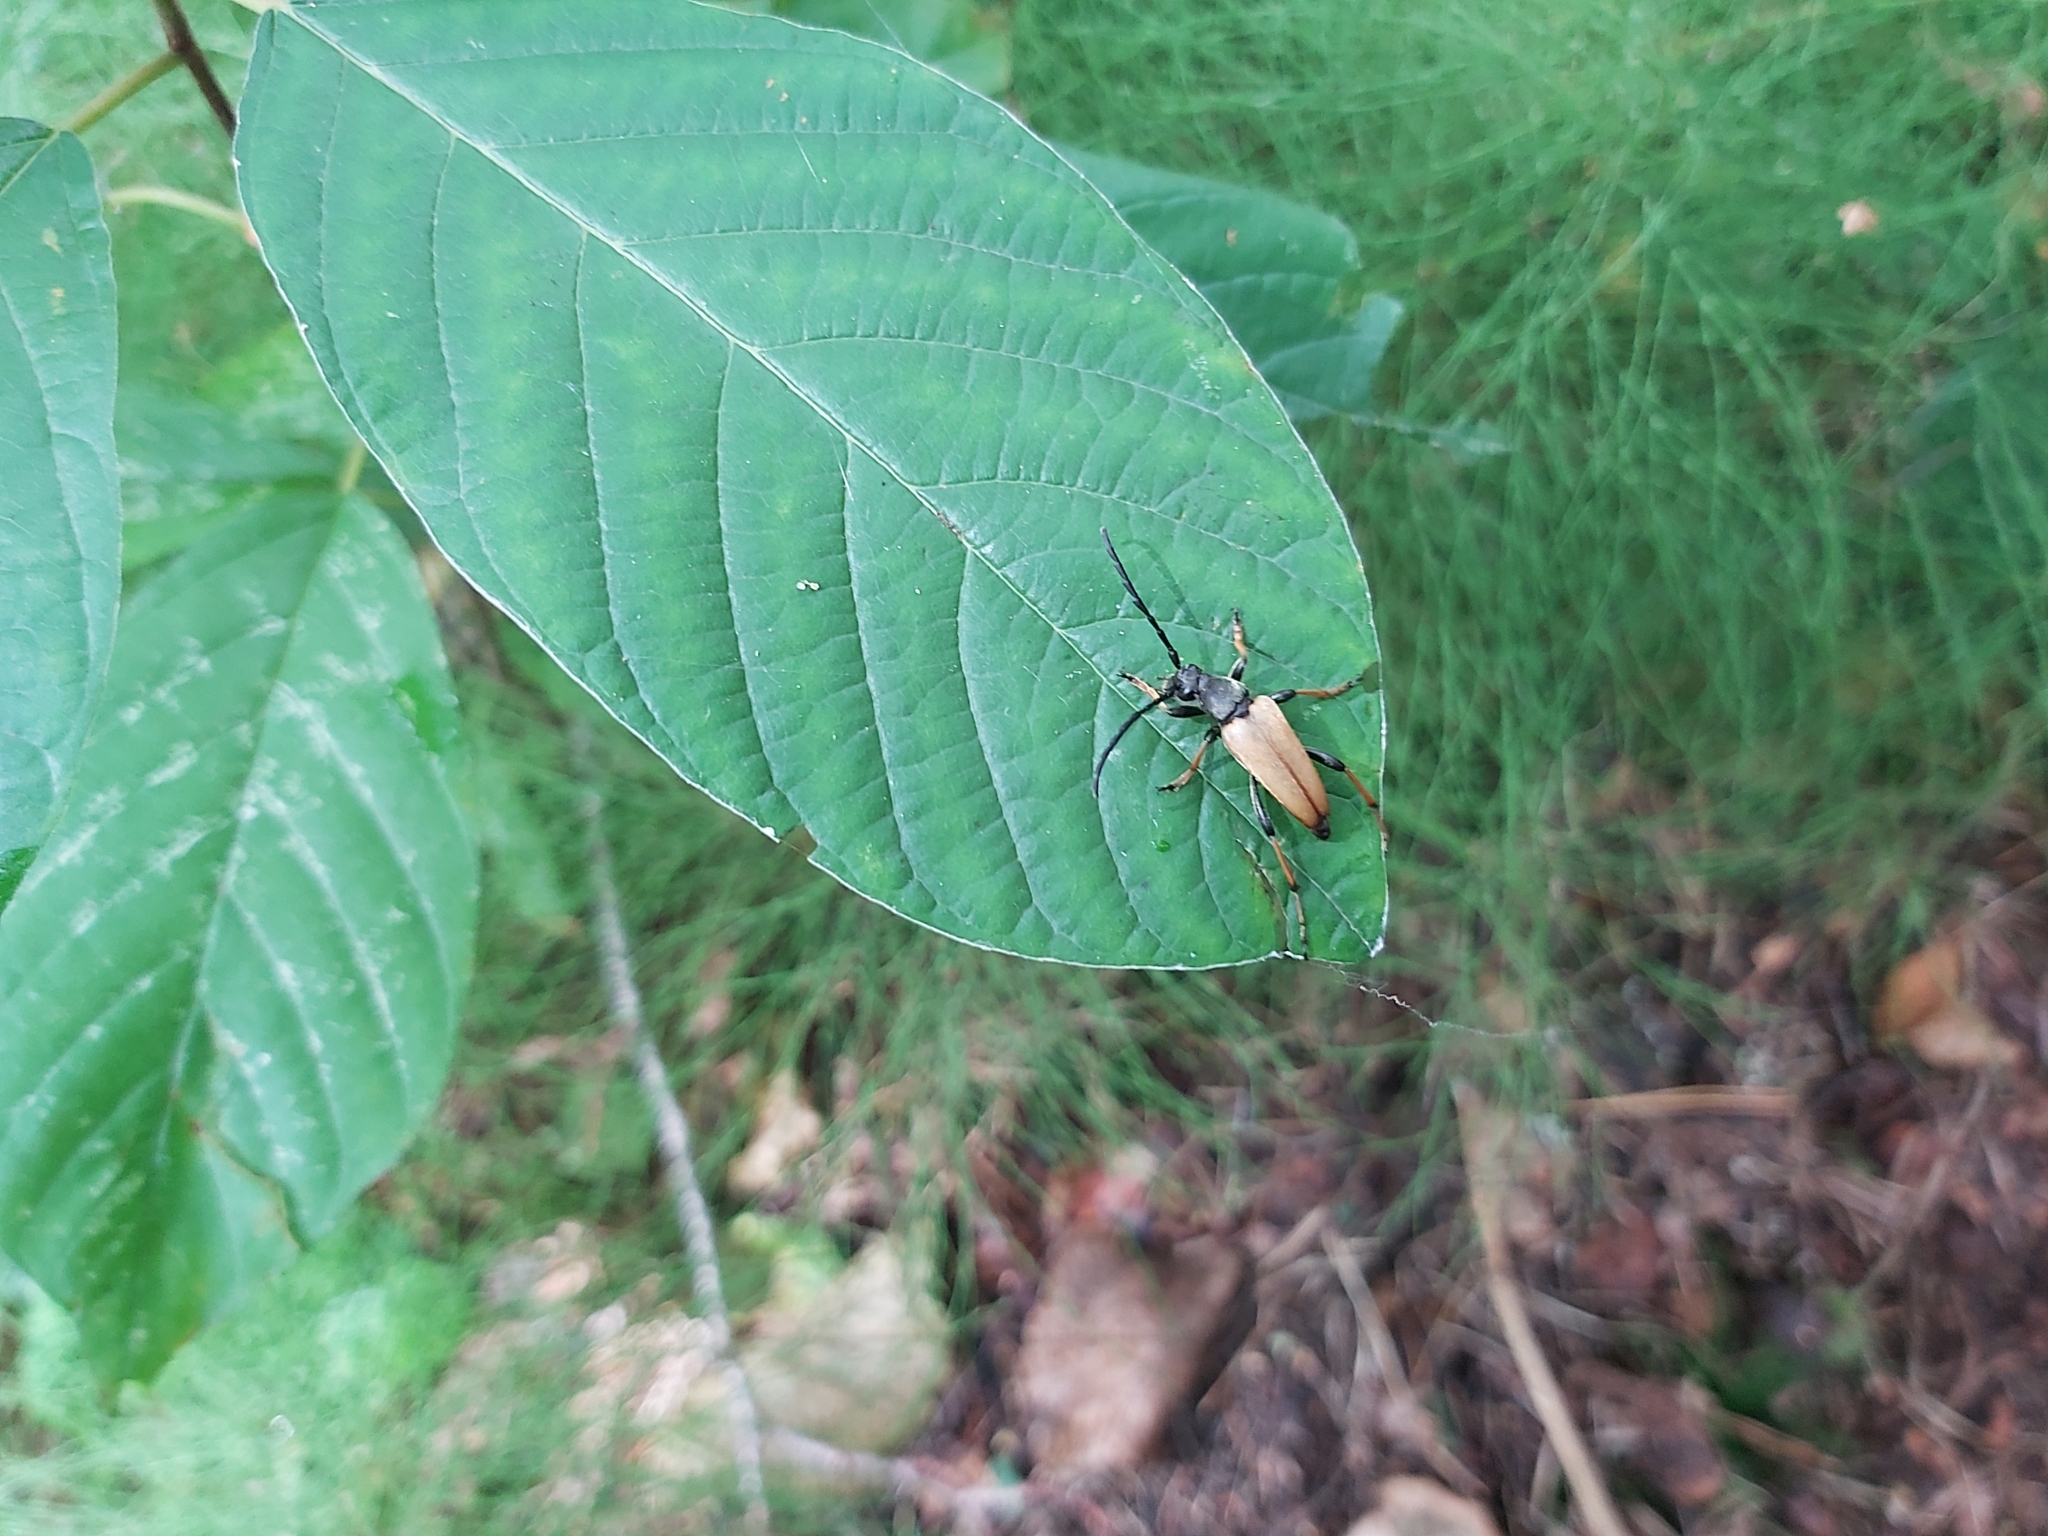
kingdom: Animalia
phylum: Arthropoda
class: Insecta
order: Coleoptera
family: Cerambycidae
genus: Stictoleptura
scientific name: Stictoleptura rubra
